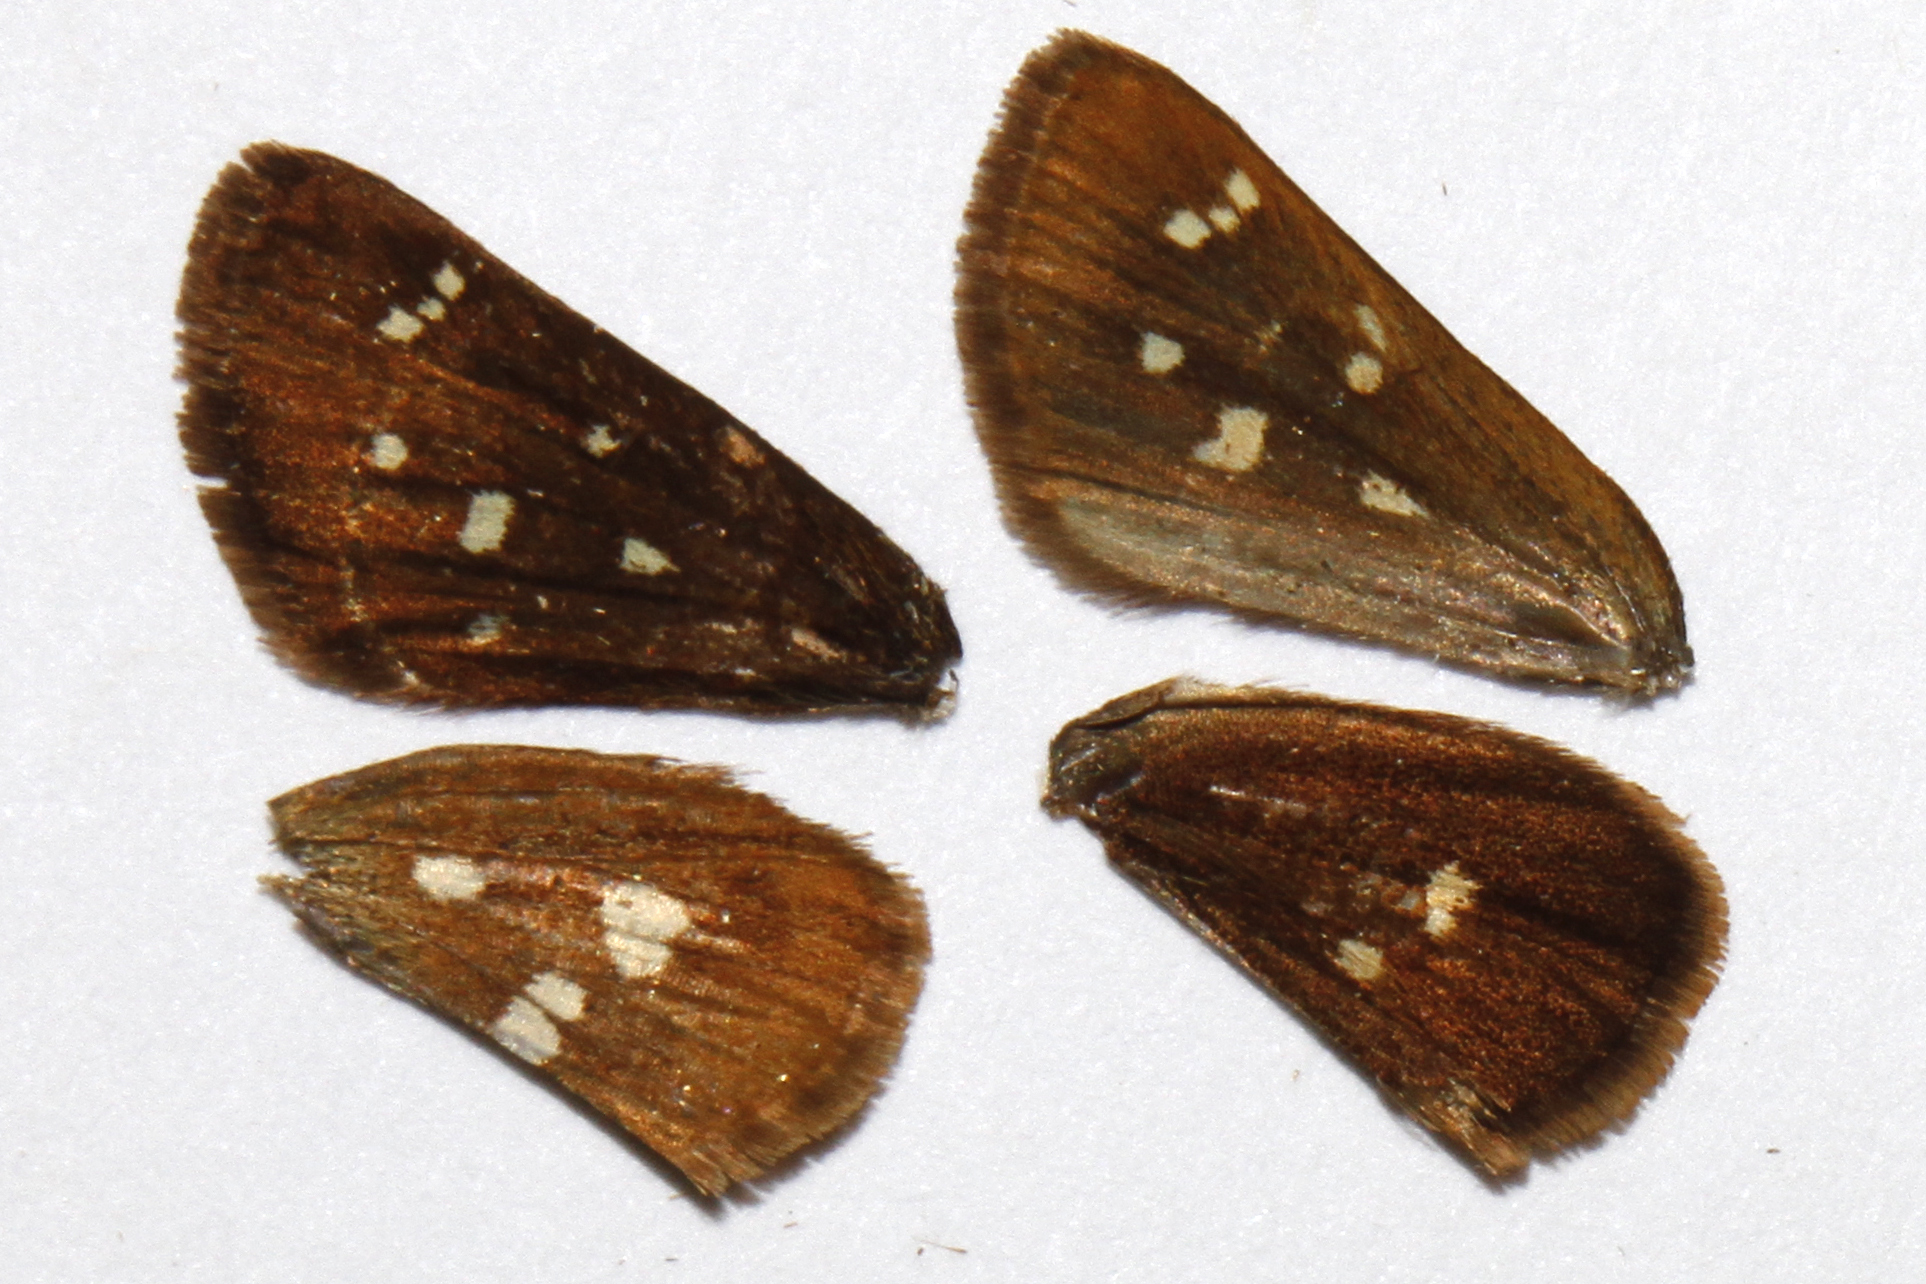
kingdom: Animalia
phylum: Arthropoda
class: Insecta
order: Lepidoptera
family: Hesperiidae
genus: Piruna
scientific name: Piruna polingii
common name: Four-spotted skipperling
